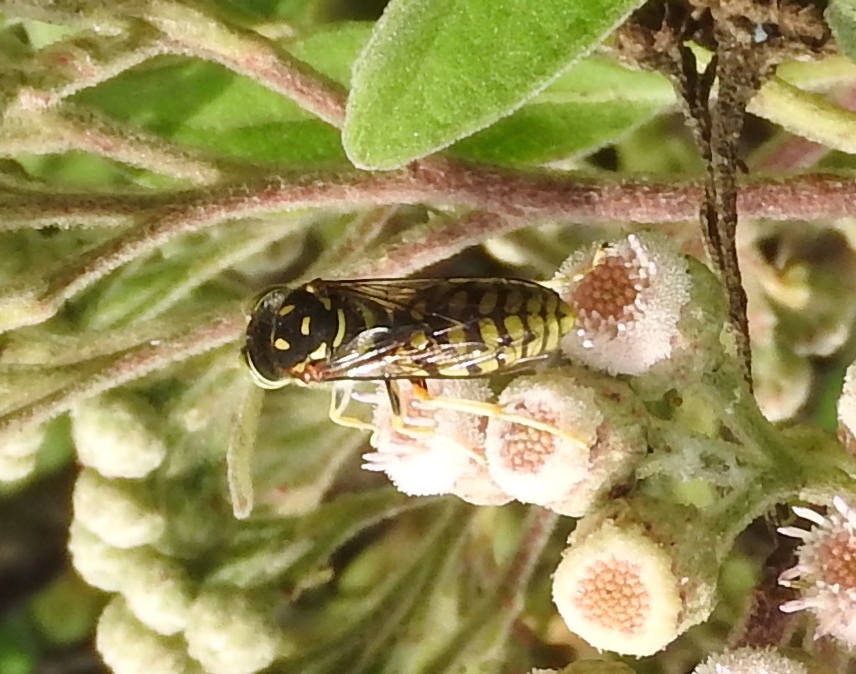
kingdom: Animalia
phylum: Arthropoda
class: Insecta
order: Hymenoptera
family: Crabronidae
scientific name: Crabronidae
